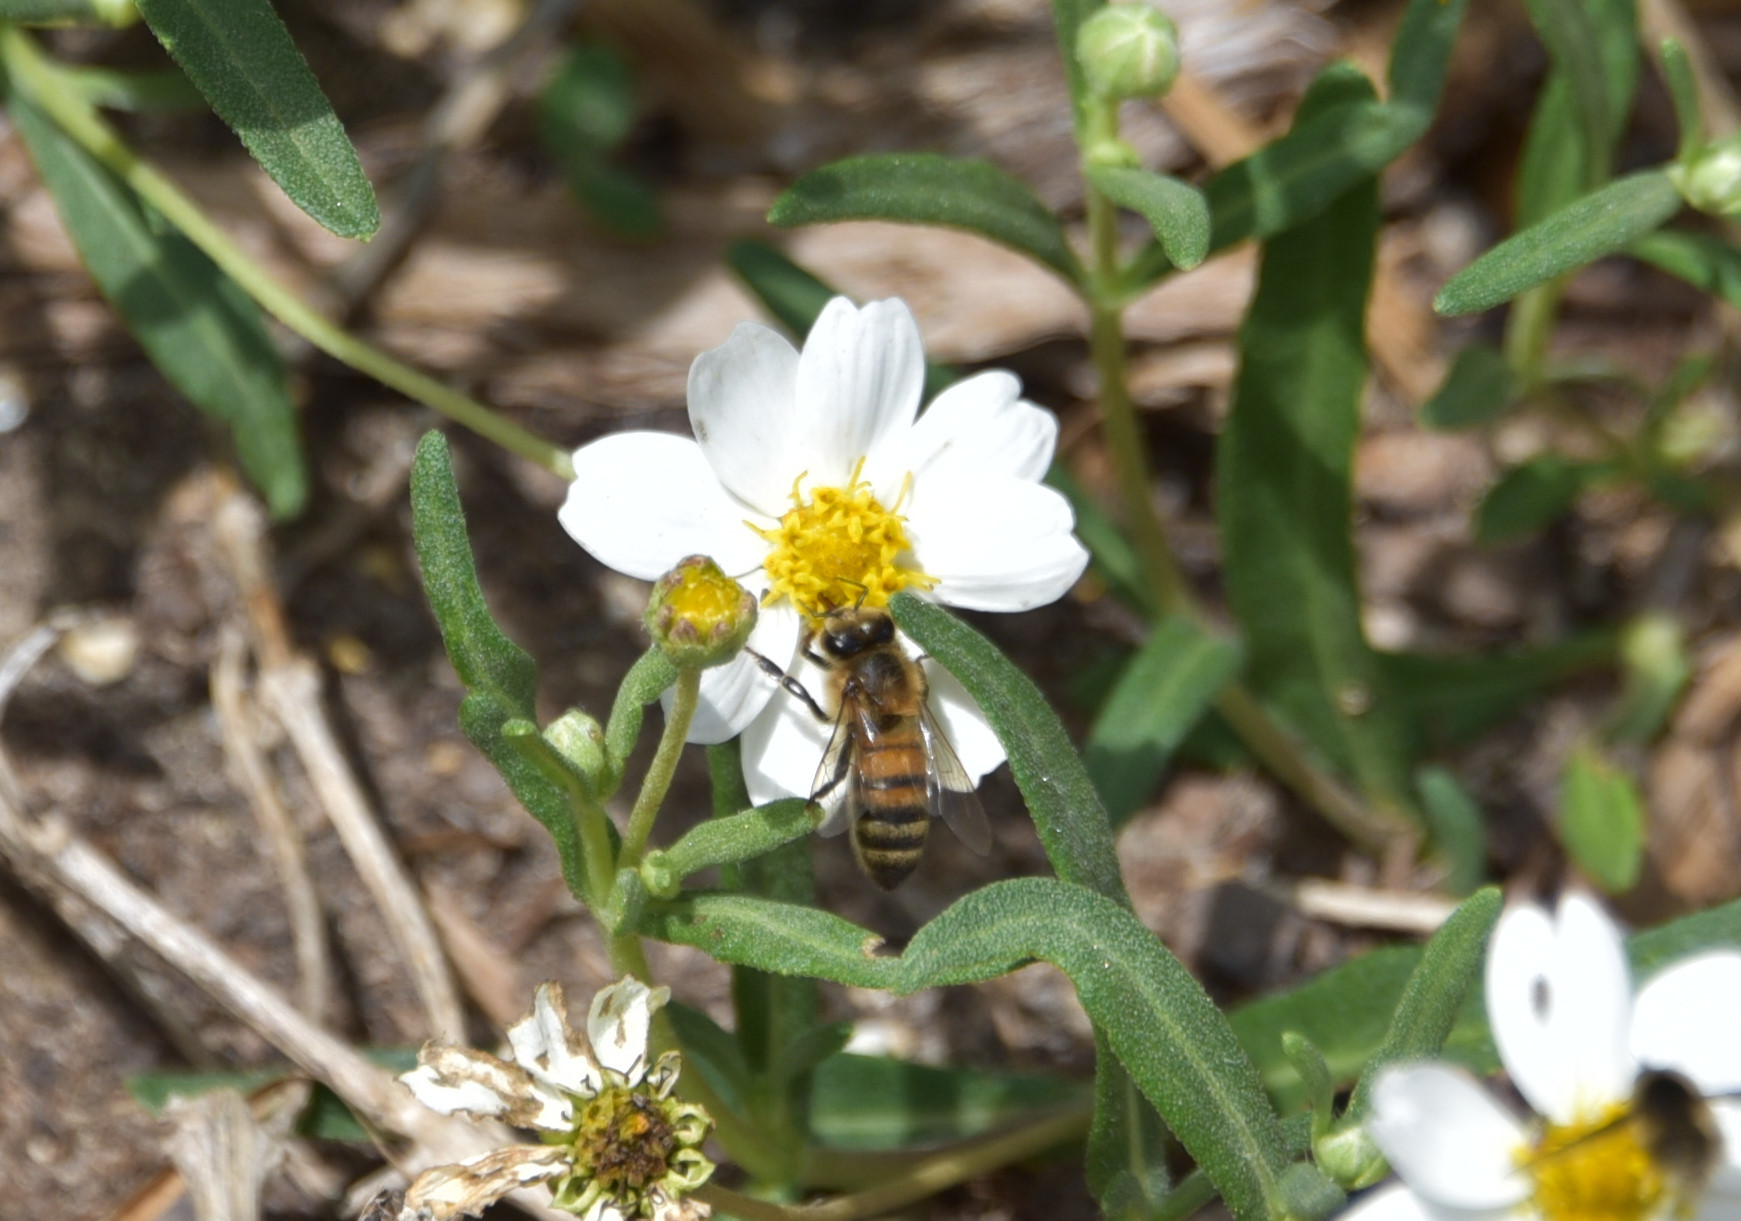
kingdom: Animalia
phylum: Arthropoda
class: Insecta
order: Hymenoptera
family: Apidae
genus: Apis
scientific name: Apis mellifera
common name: Honey bee
